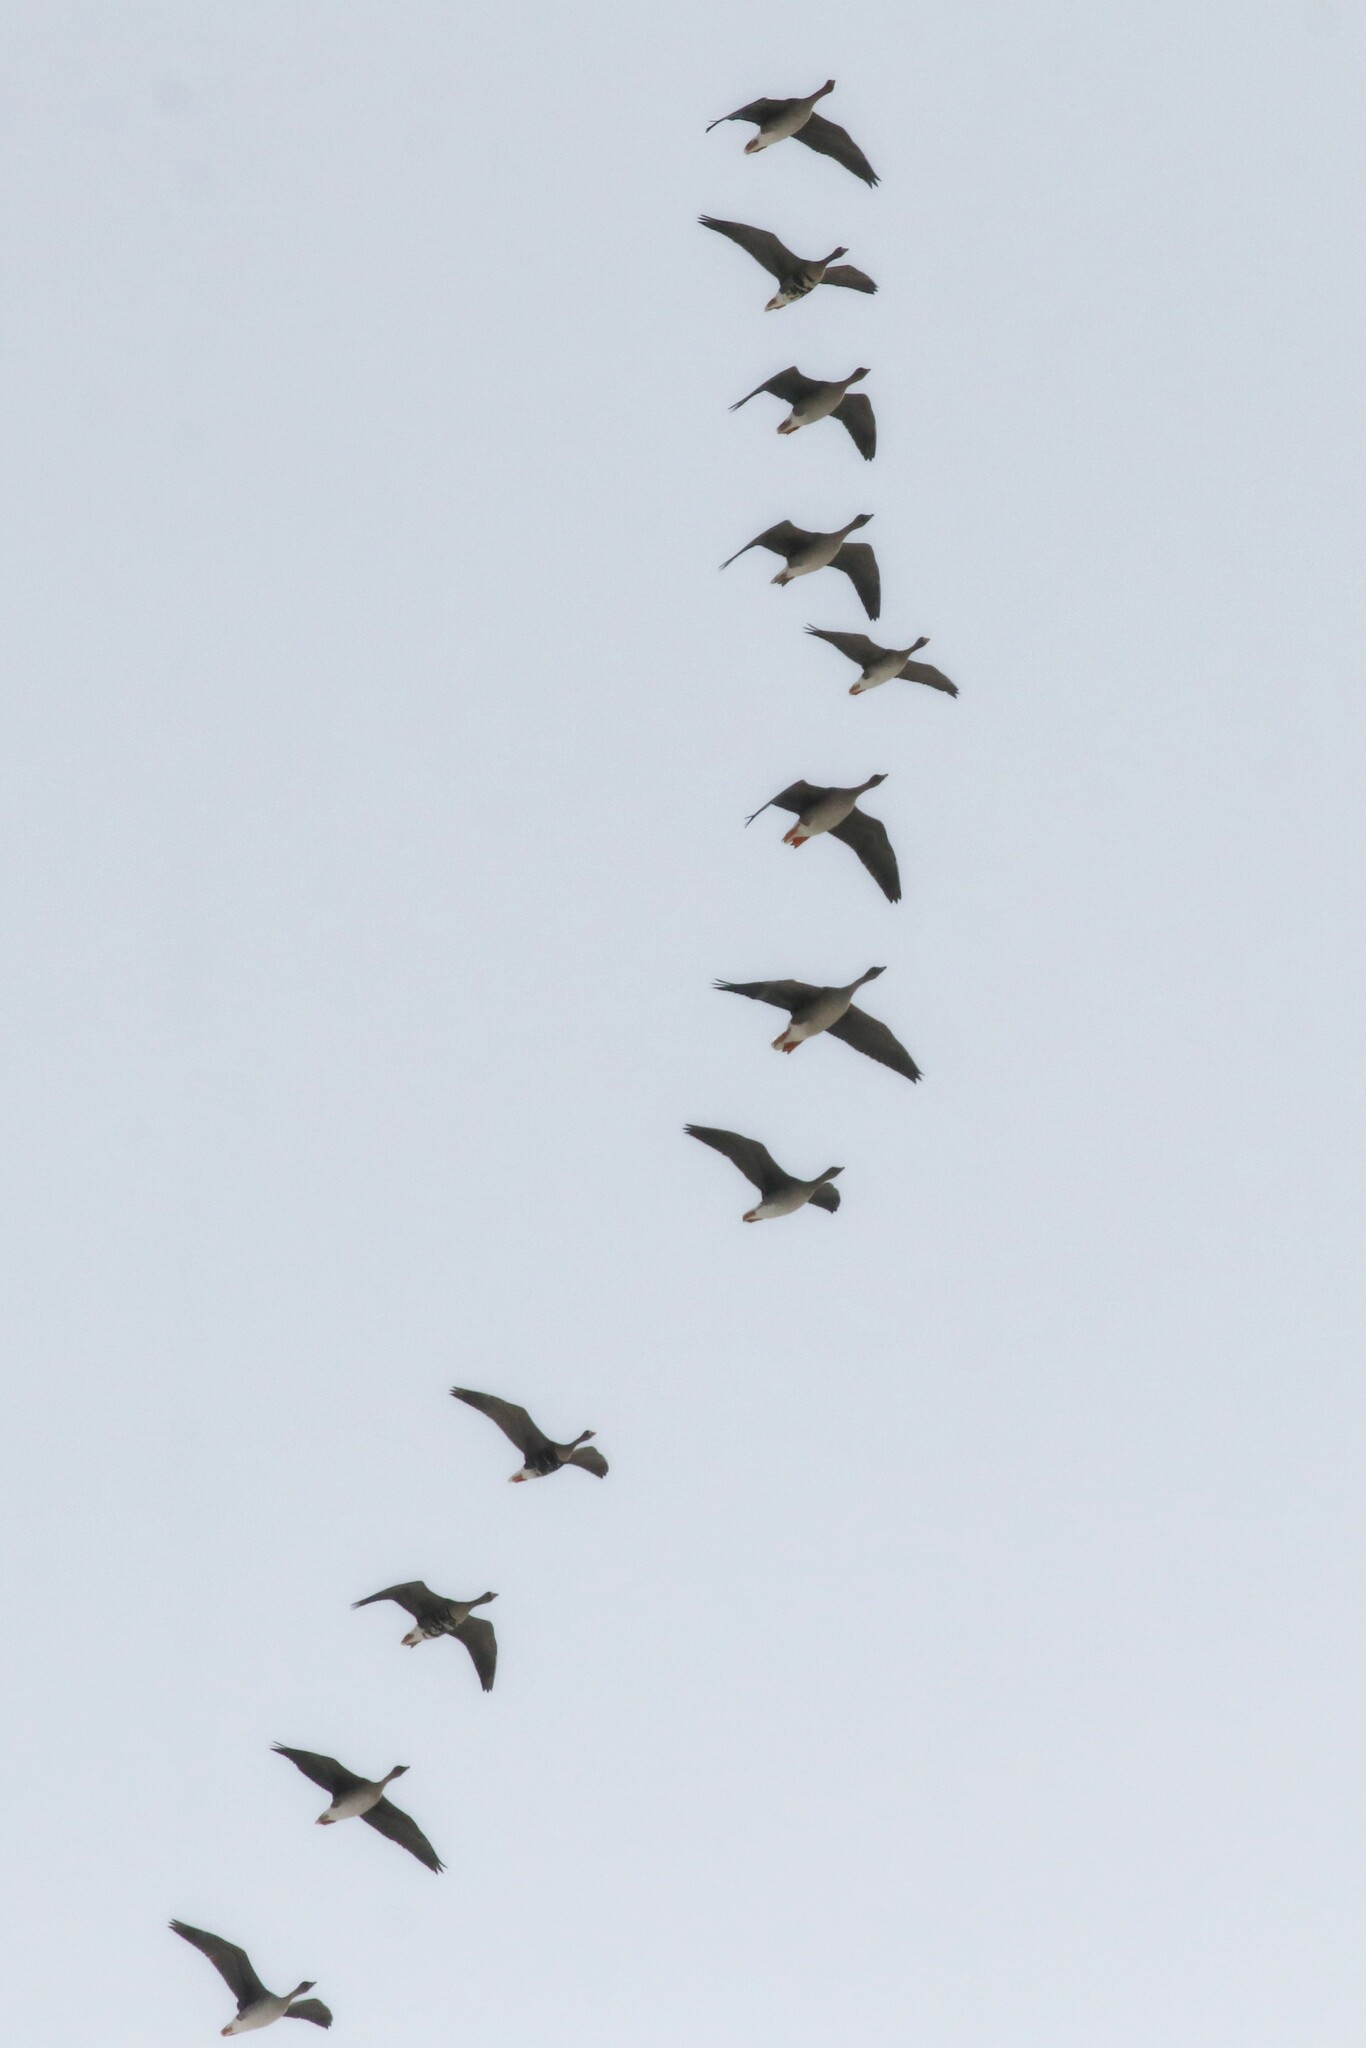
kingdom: Animalia
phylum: Chordata
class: Aves
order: Anseriformes
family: Anatidae
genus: Anser
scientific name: Anser albifrons
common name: Greater white-fronted goose
